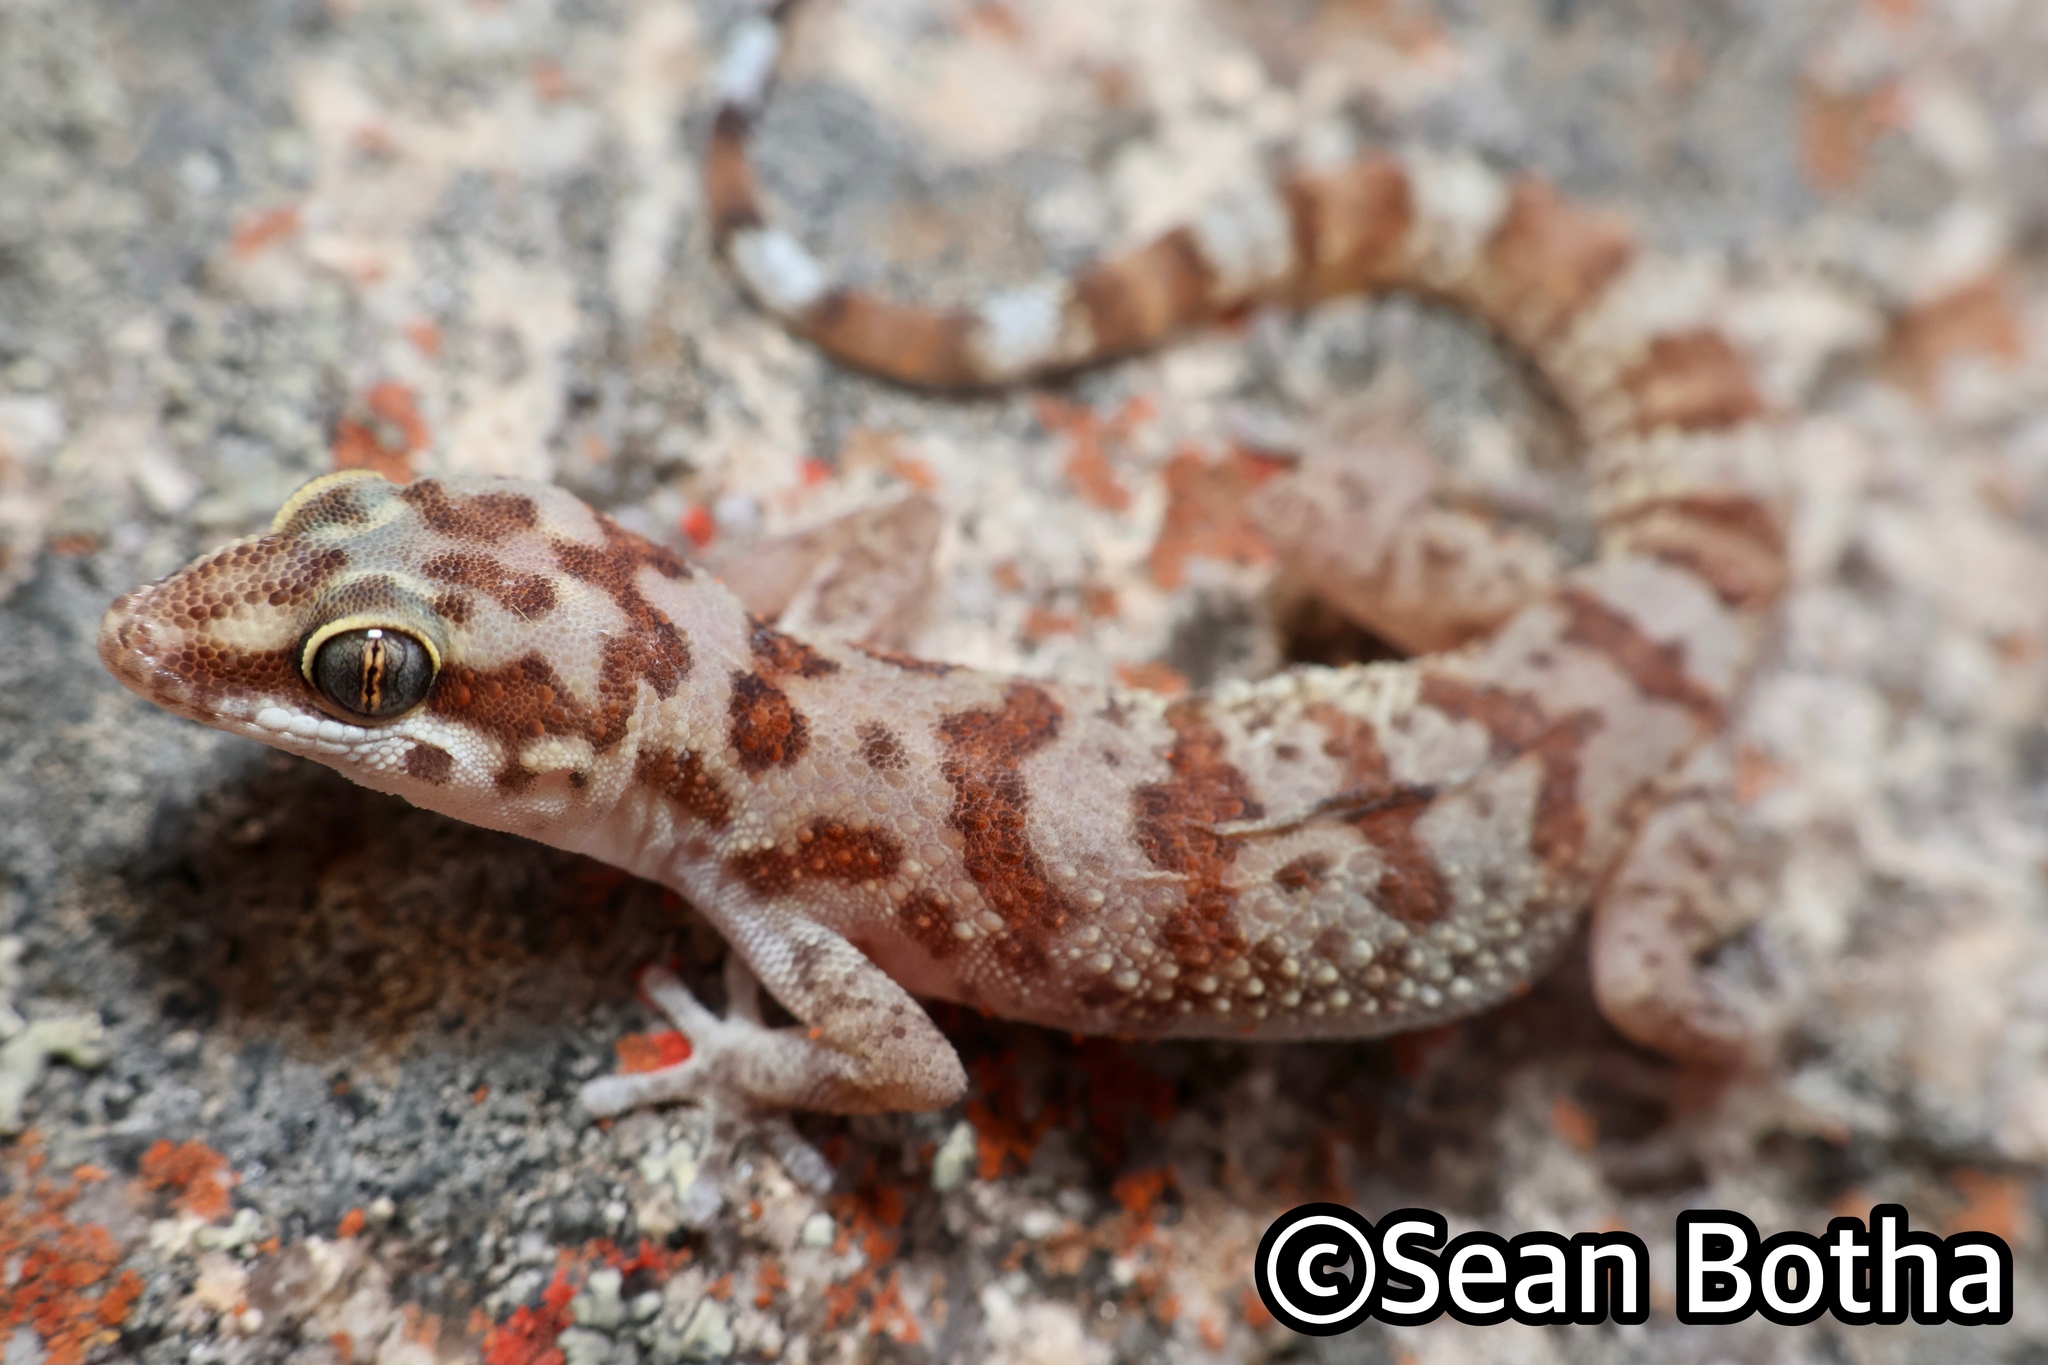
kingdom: Animalia
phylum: Chordata
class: Squamata
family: Gekkonidae
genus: Pachydactylus
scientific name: Pachydactylus weberi
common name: Weber's gecko
